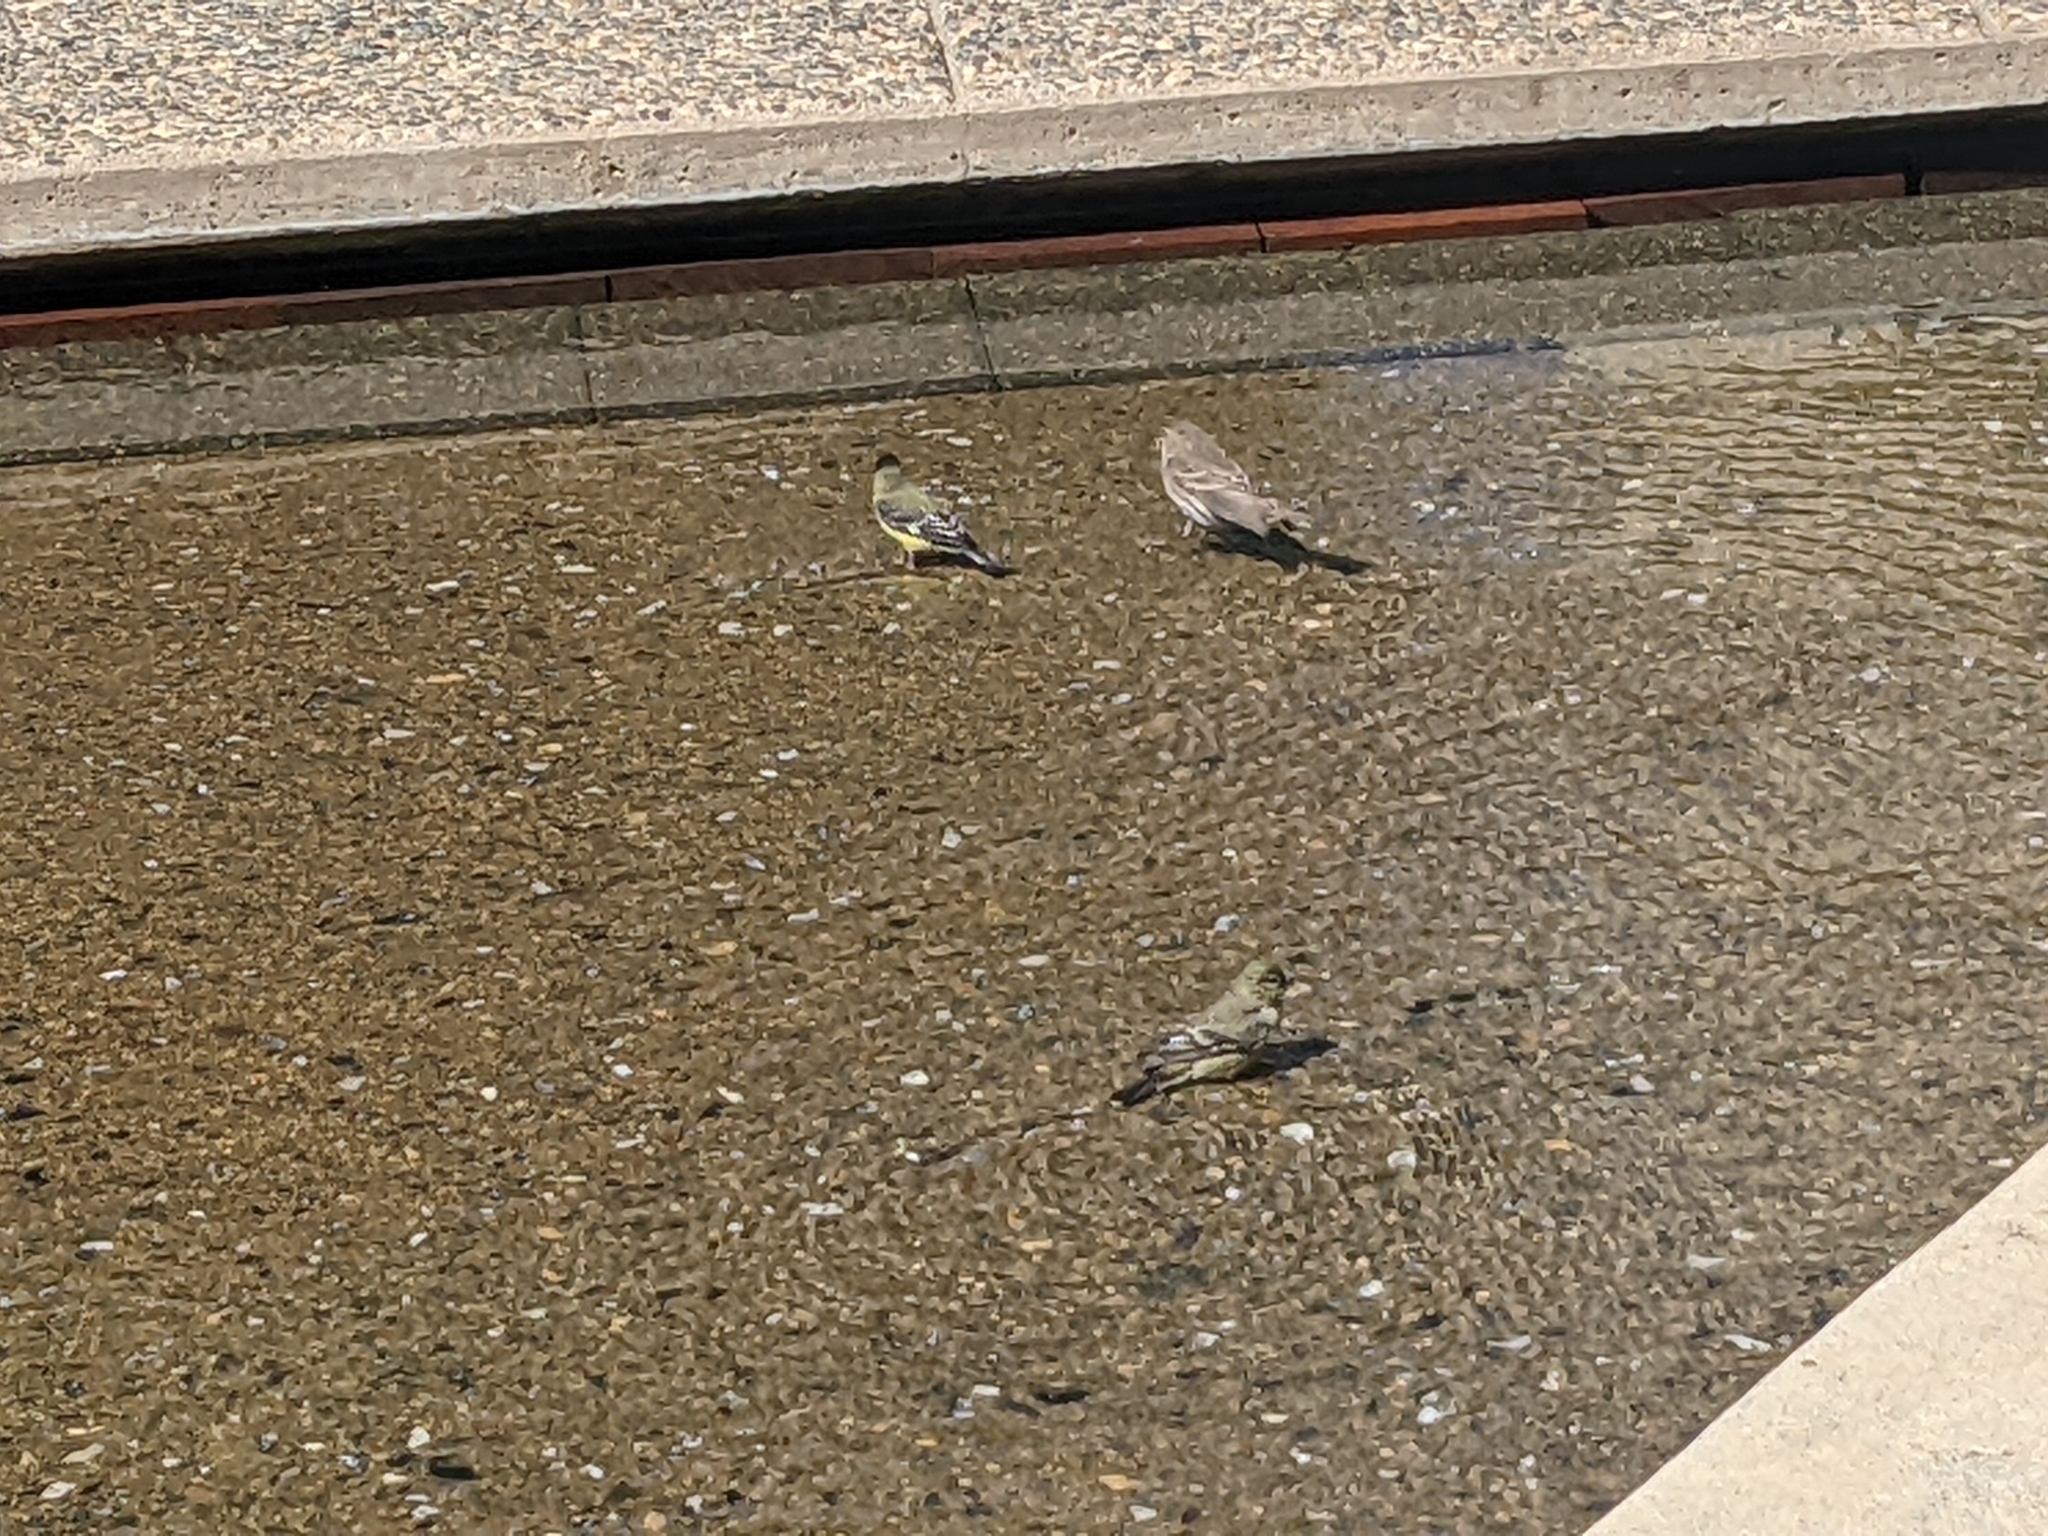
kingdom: Animalia
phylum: Chordata
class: Aves
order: Passeriformes
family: Fringillidae
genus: Spinus
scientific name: Spinus psaltria
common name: Lesser goldfinch
